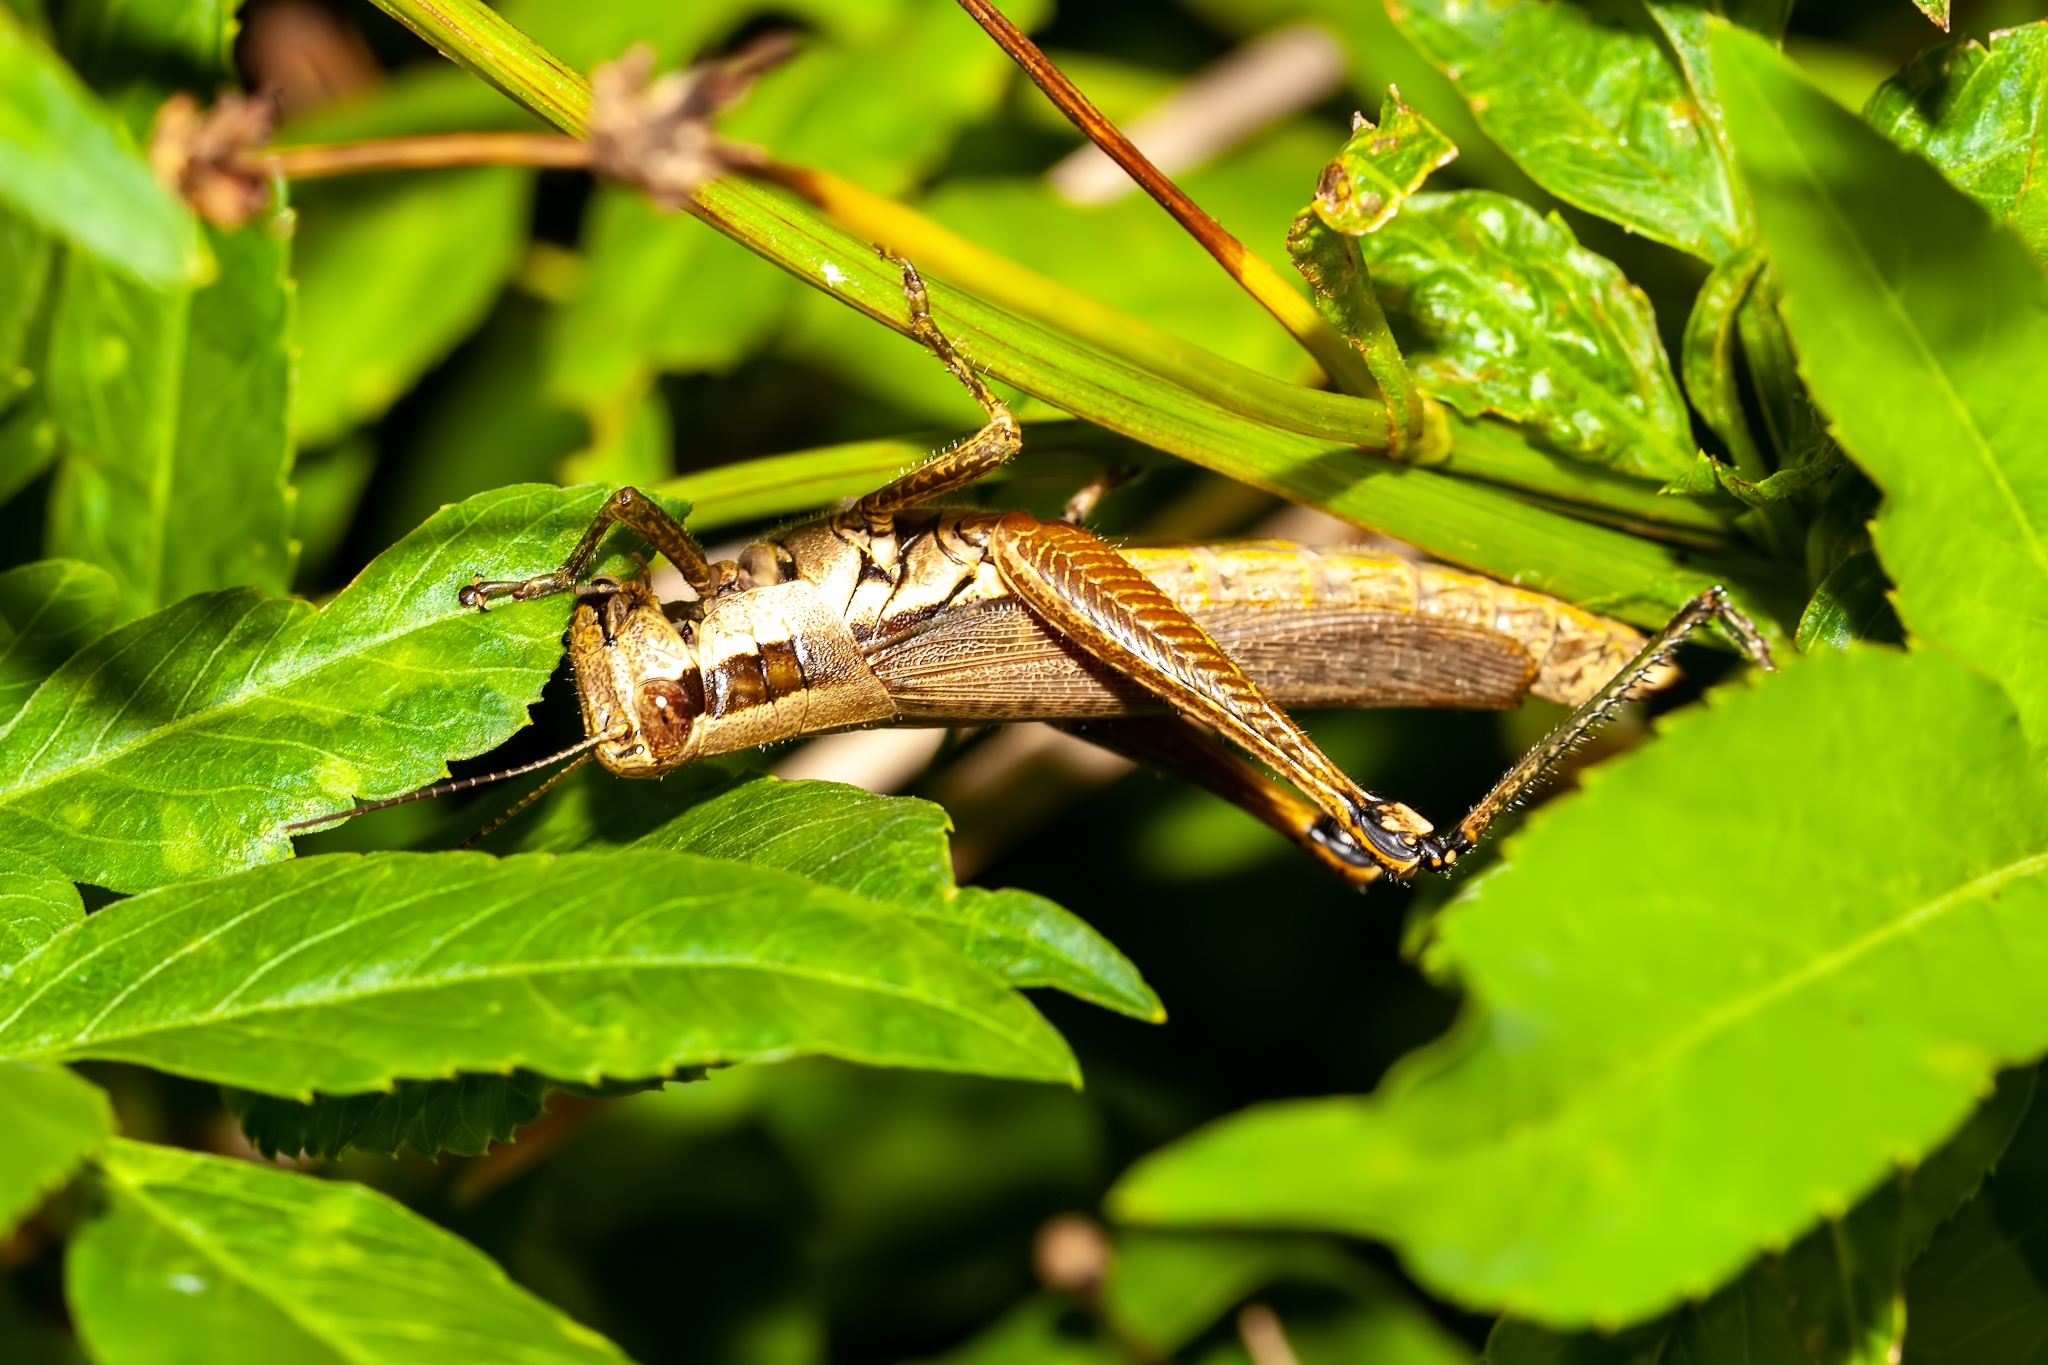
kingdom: Animalia
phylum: Arthropoda
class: Insecta
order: Orthoptera
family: Acrididae
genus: Paroxya
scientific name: Paroxya clavuligera
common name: Olive-green swamp grasshopper
